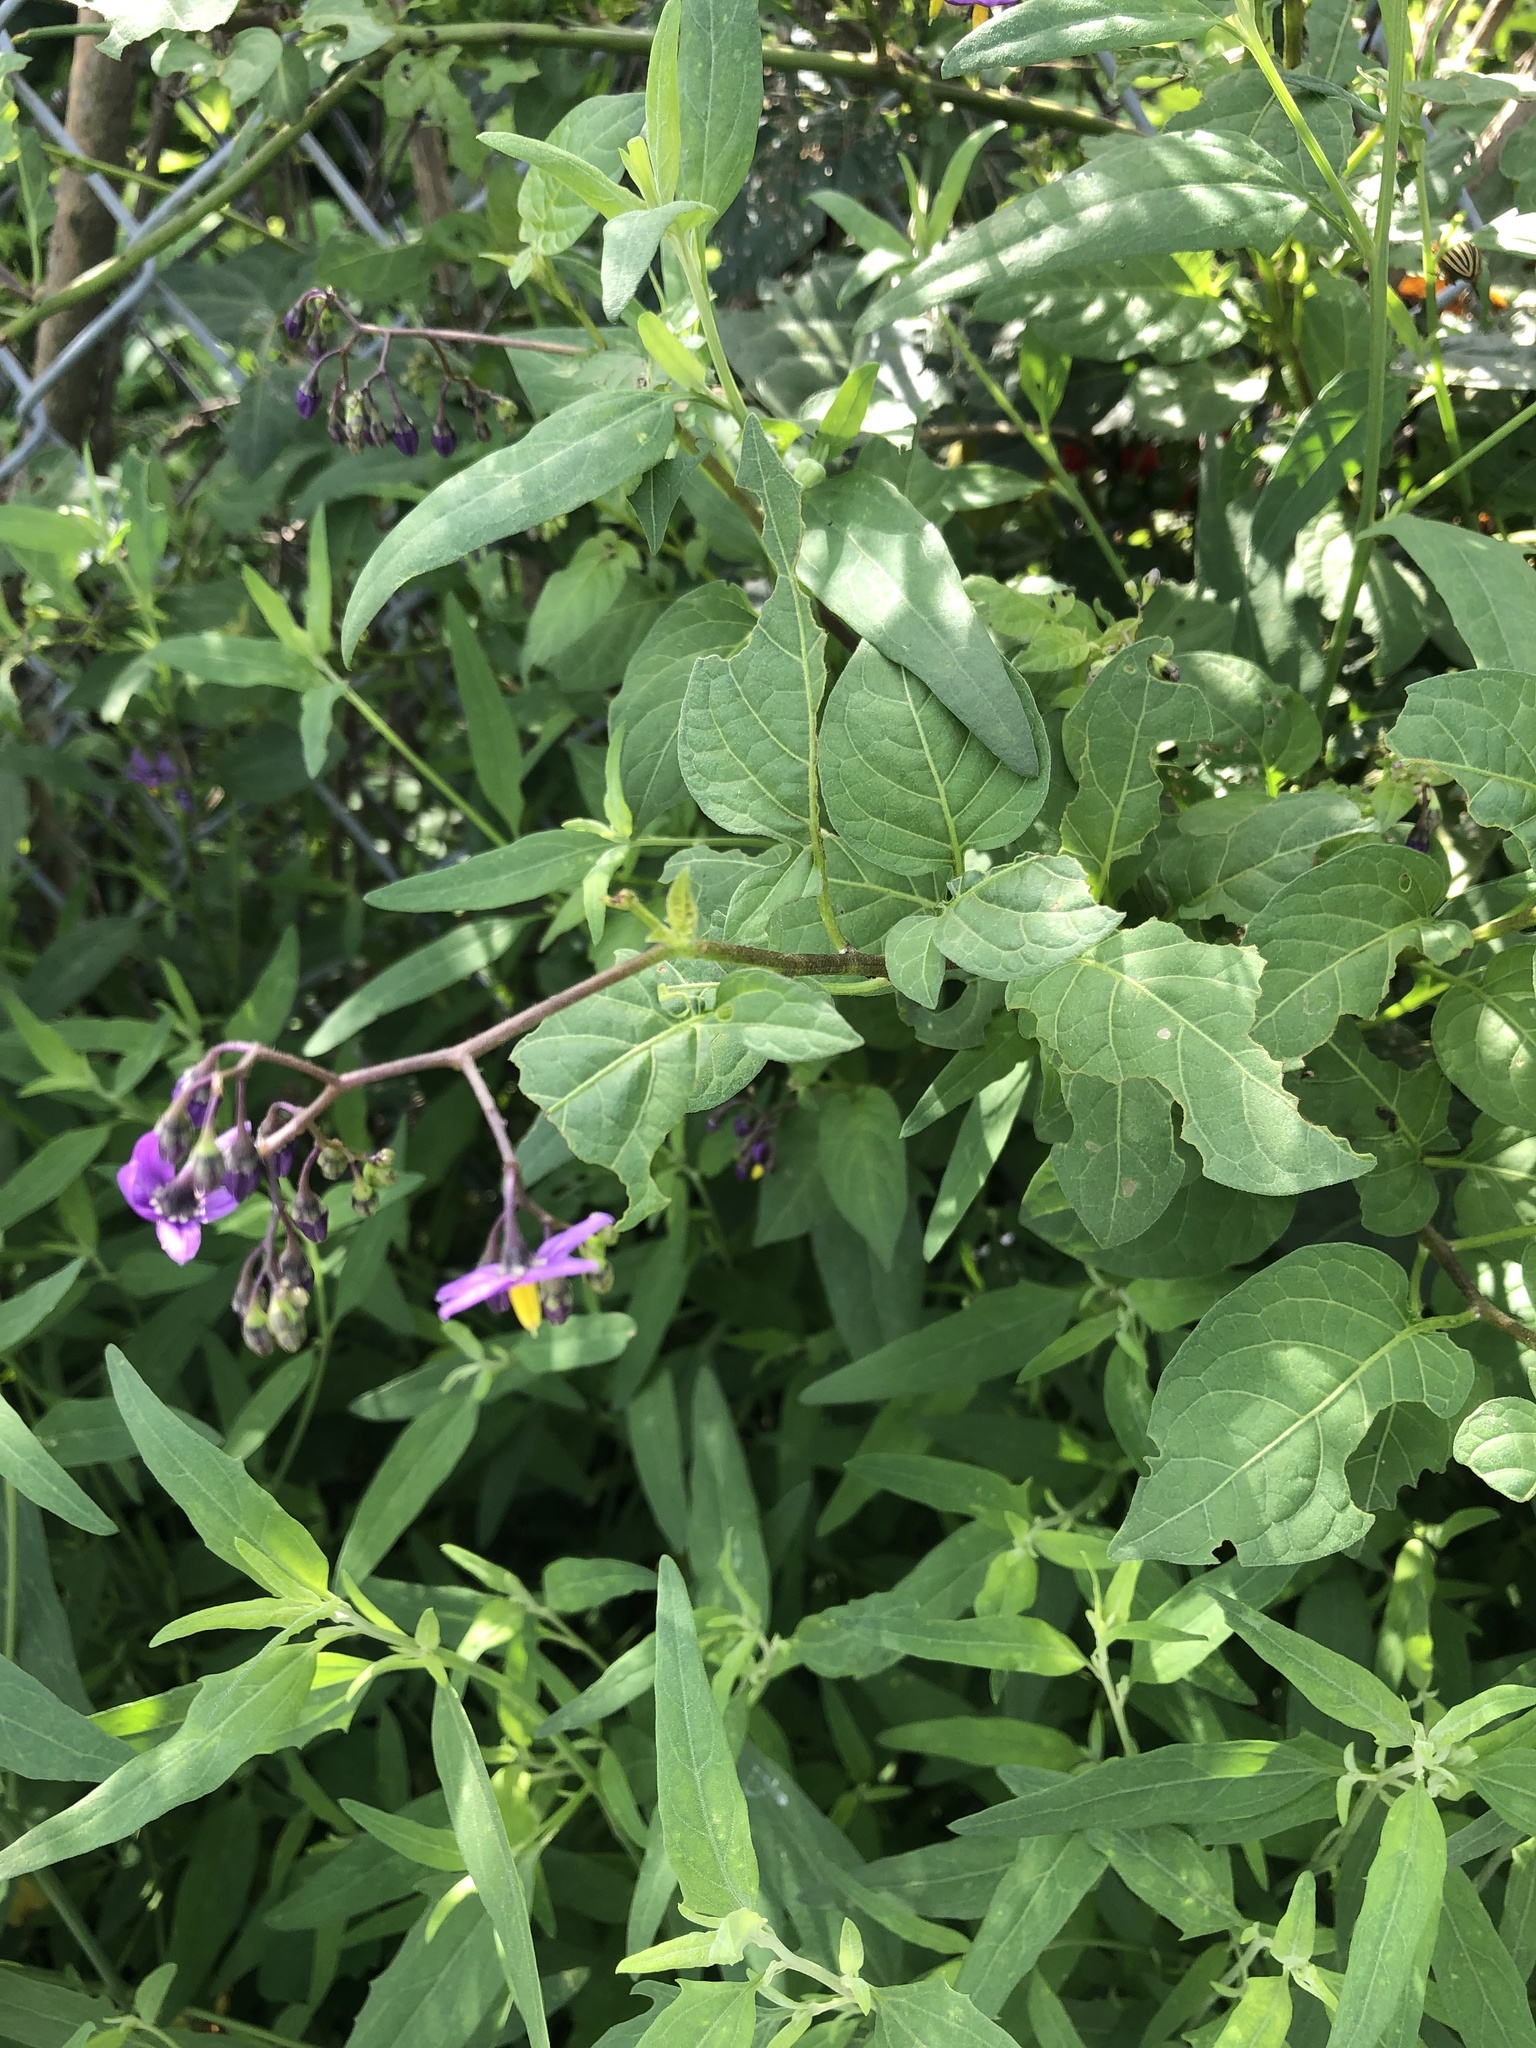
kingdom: Plantae
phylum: Tracheophyta
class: Magnoliopsida
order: Solanales
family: Solanaceae
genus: Solanum
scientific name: Solanum dulcamara
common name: Climbing nightshade
